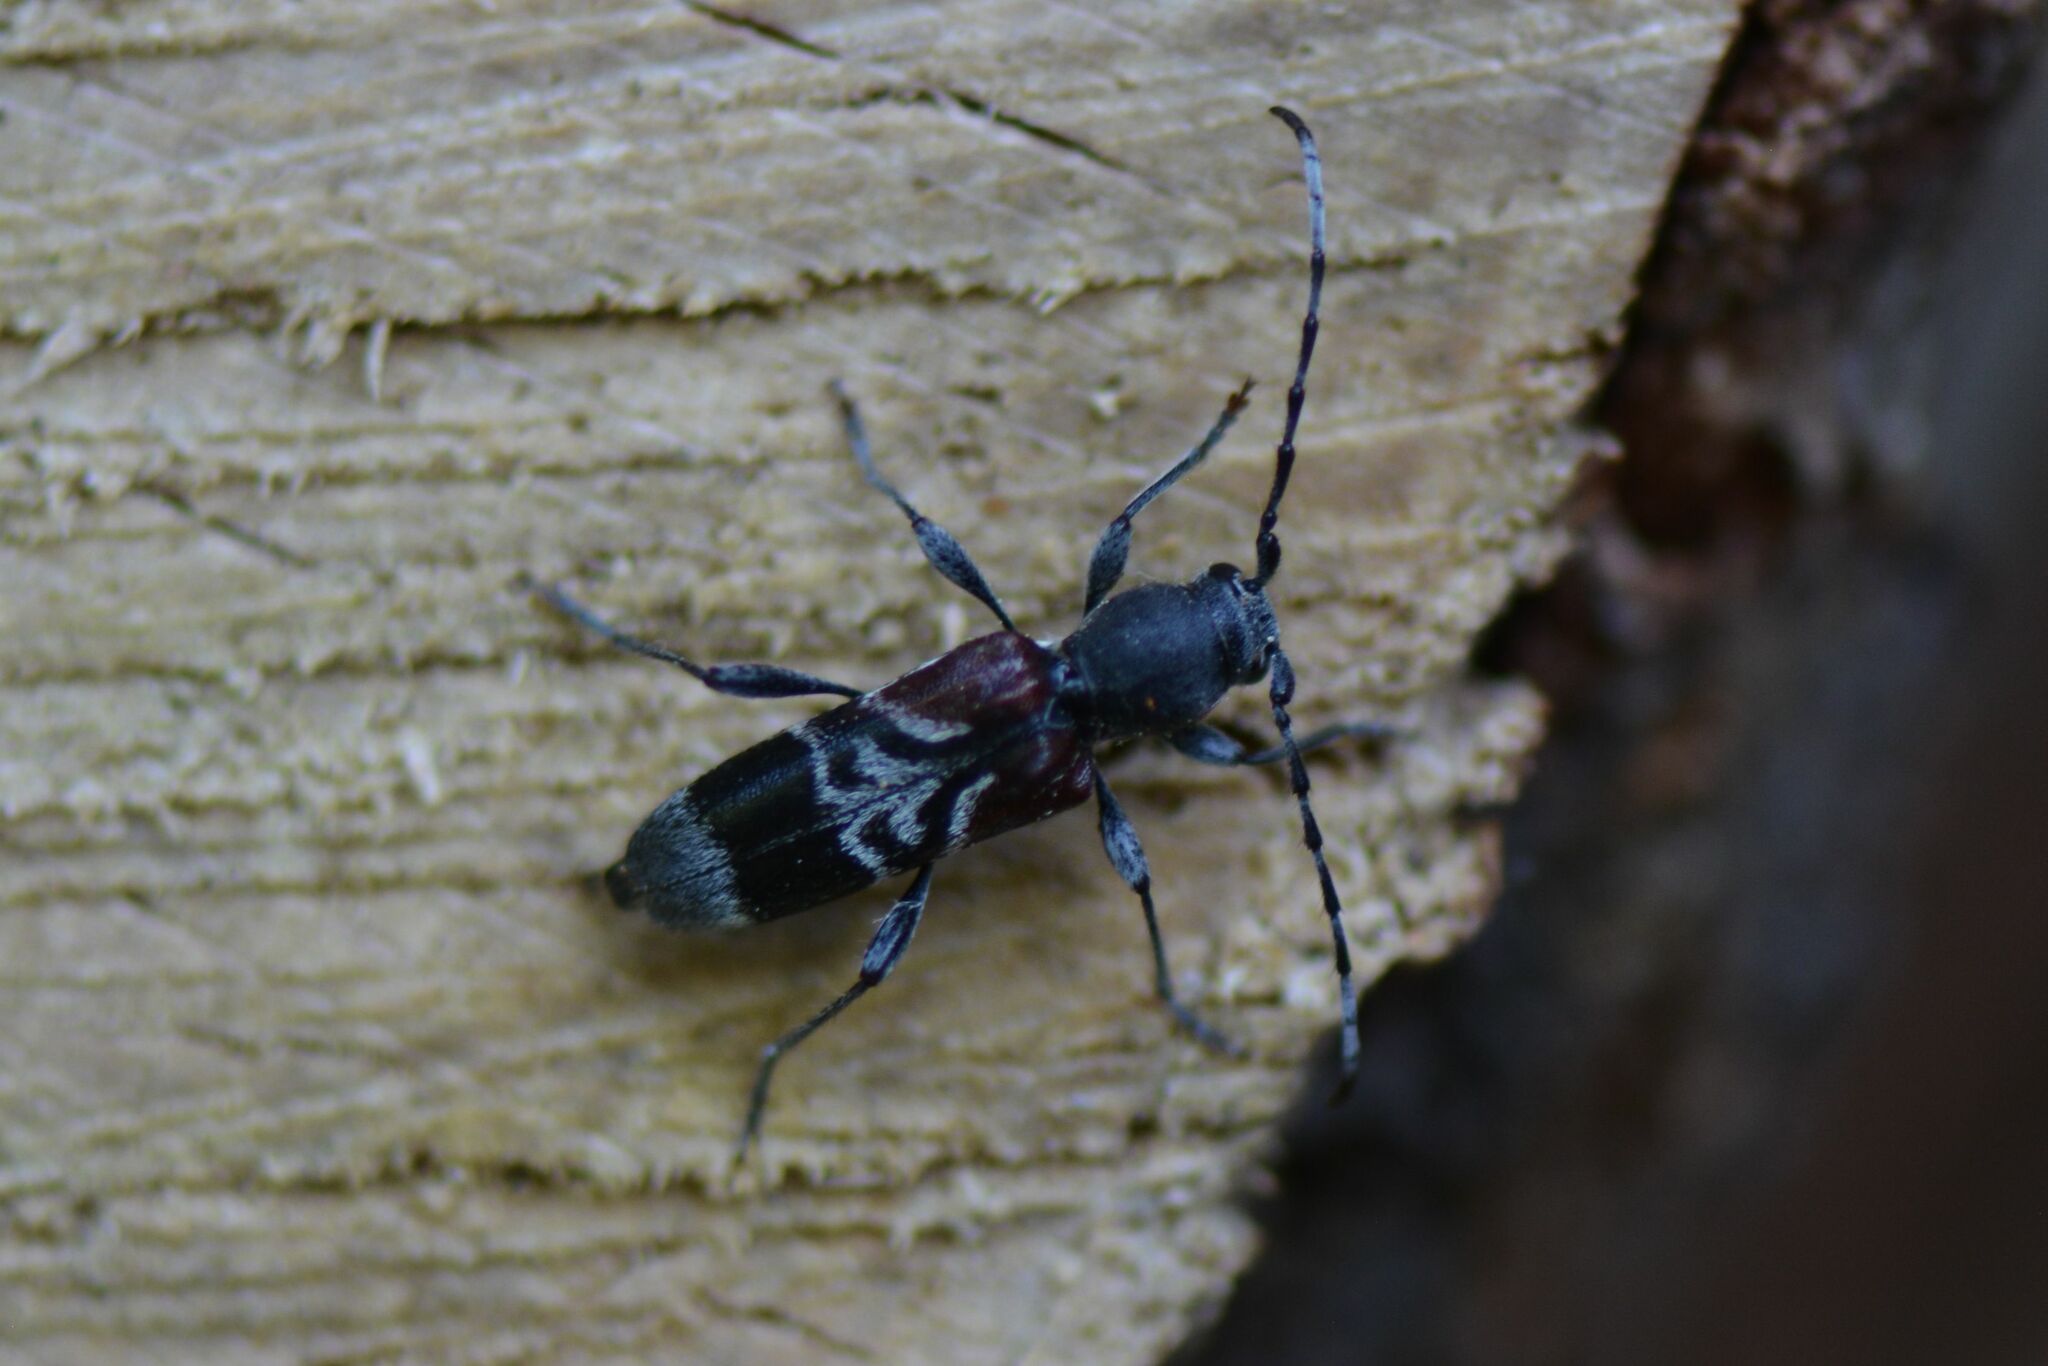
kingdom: Animalia
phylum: Arthropoda
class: Insecta
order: Coleoptera
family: Cerambycidae
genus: Anaglyptus
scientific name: Anaglyptus mysticus
